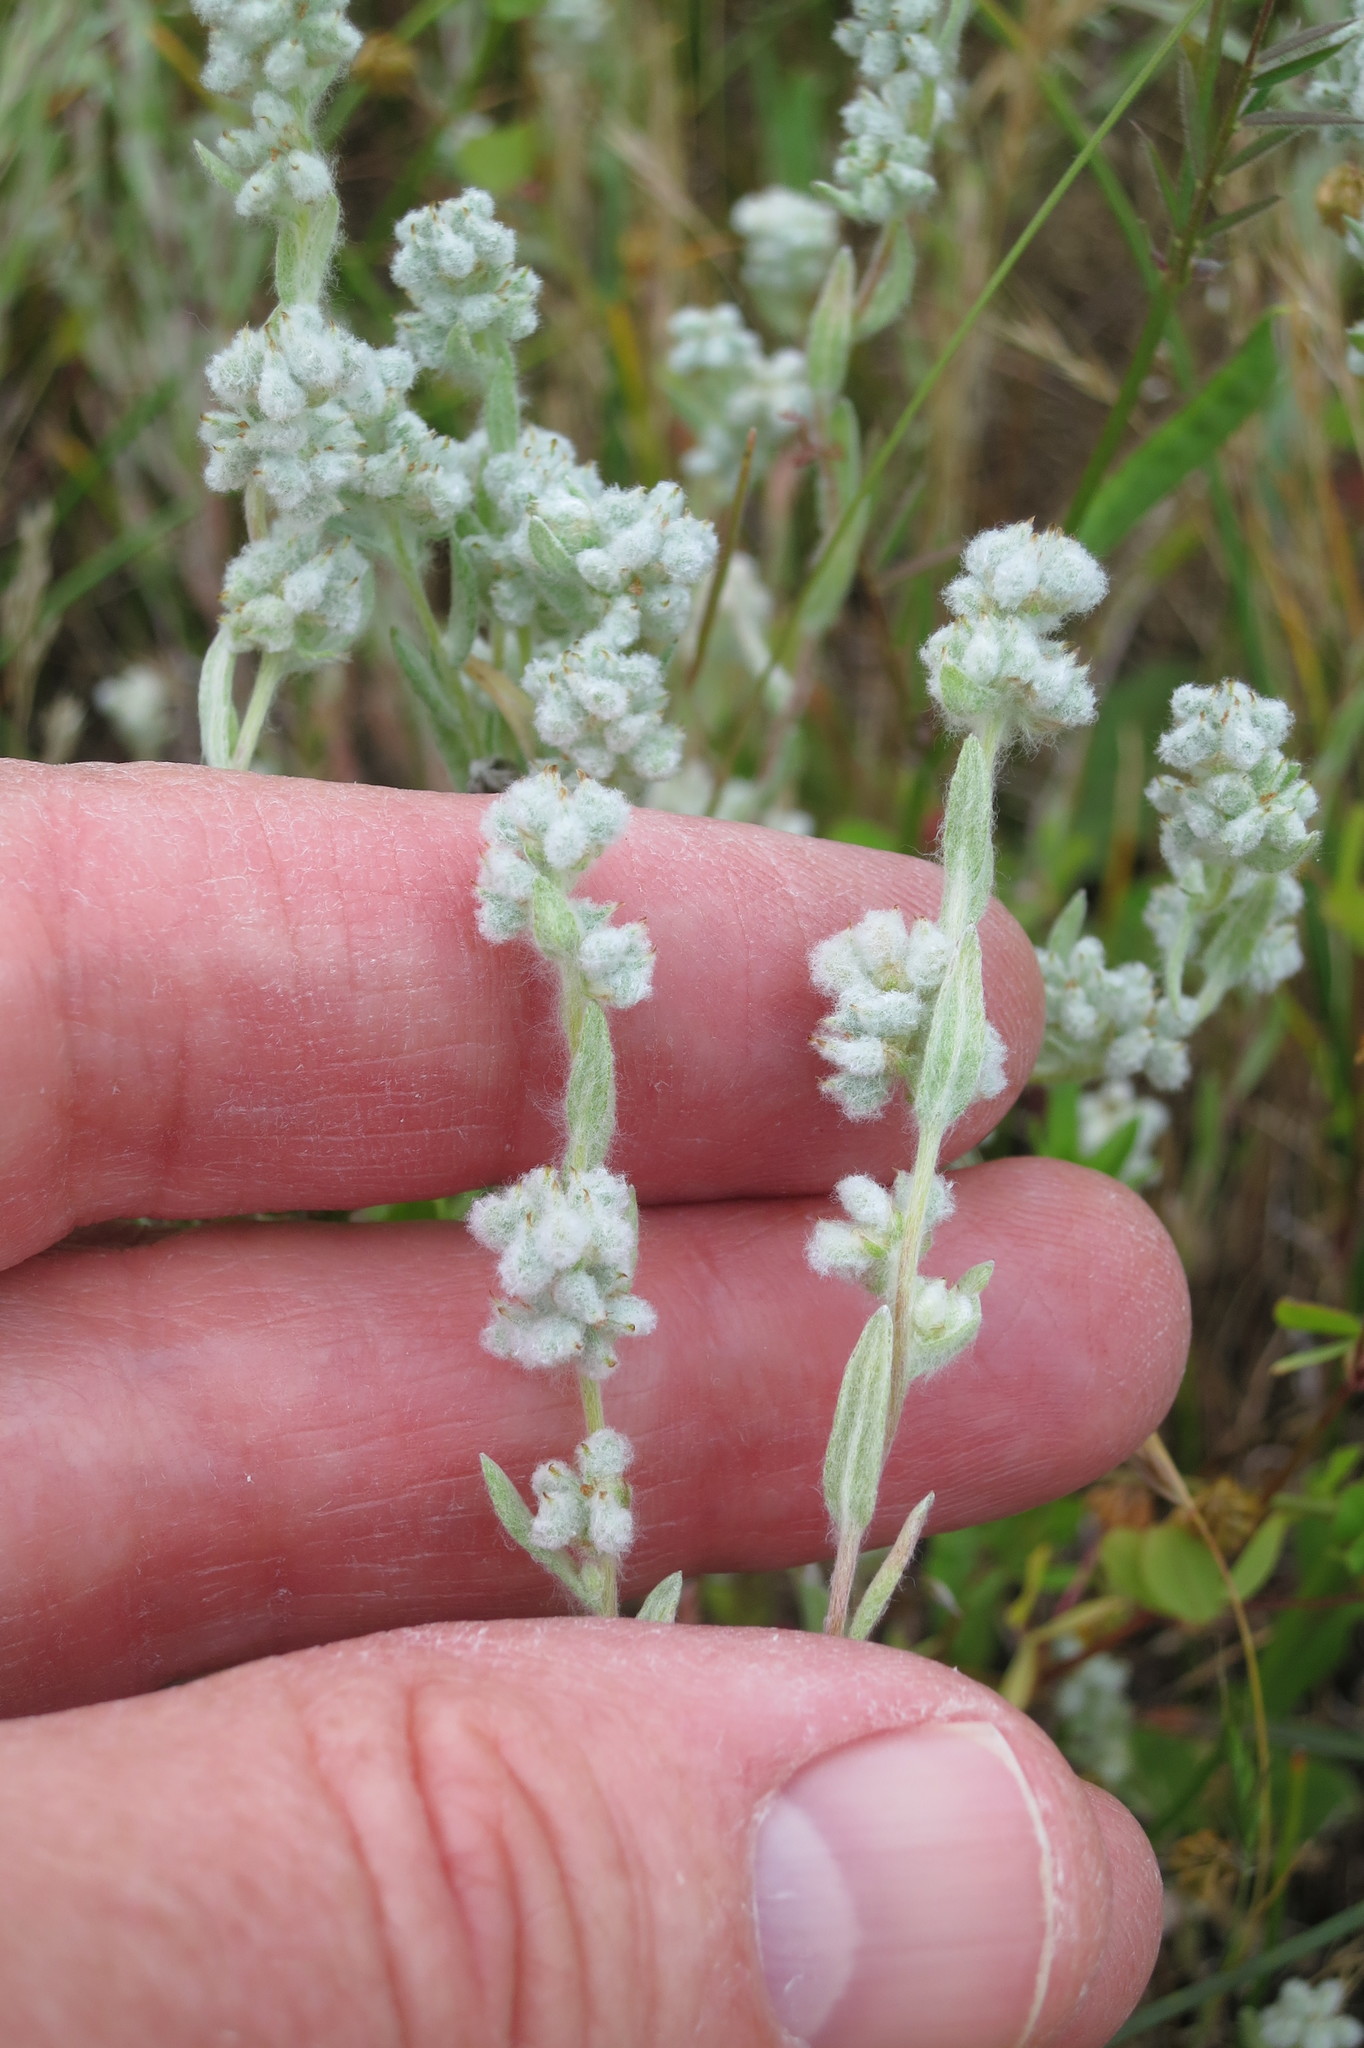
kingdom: Plantae
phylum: Tracheophyta
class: Magnoliopsida
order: Asterales
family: Asteraceae
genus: Bombycilaena
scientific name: Bombycilaena californica
